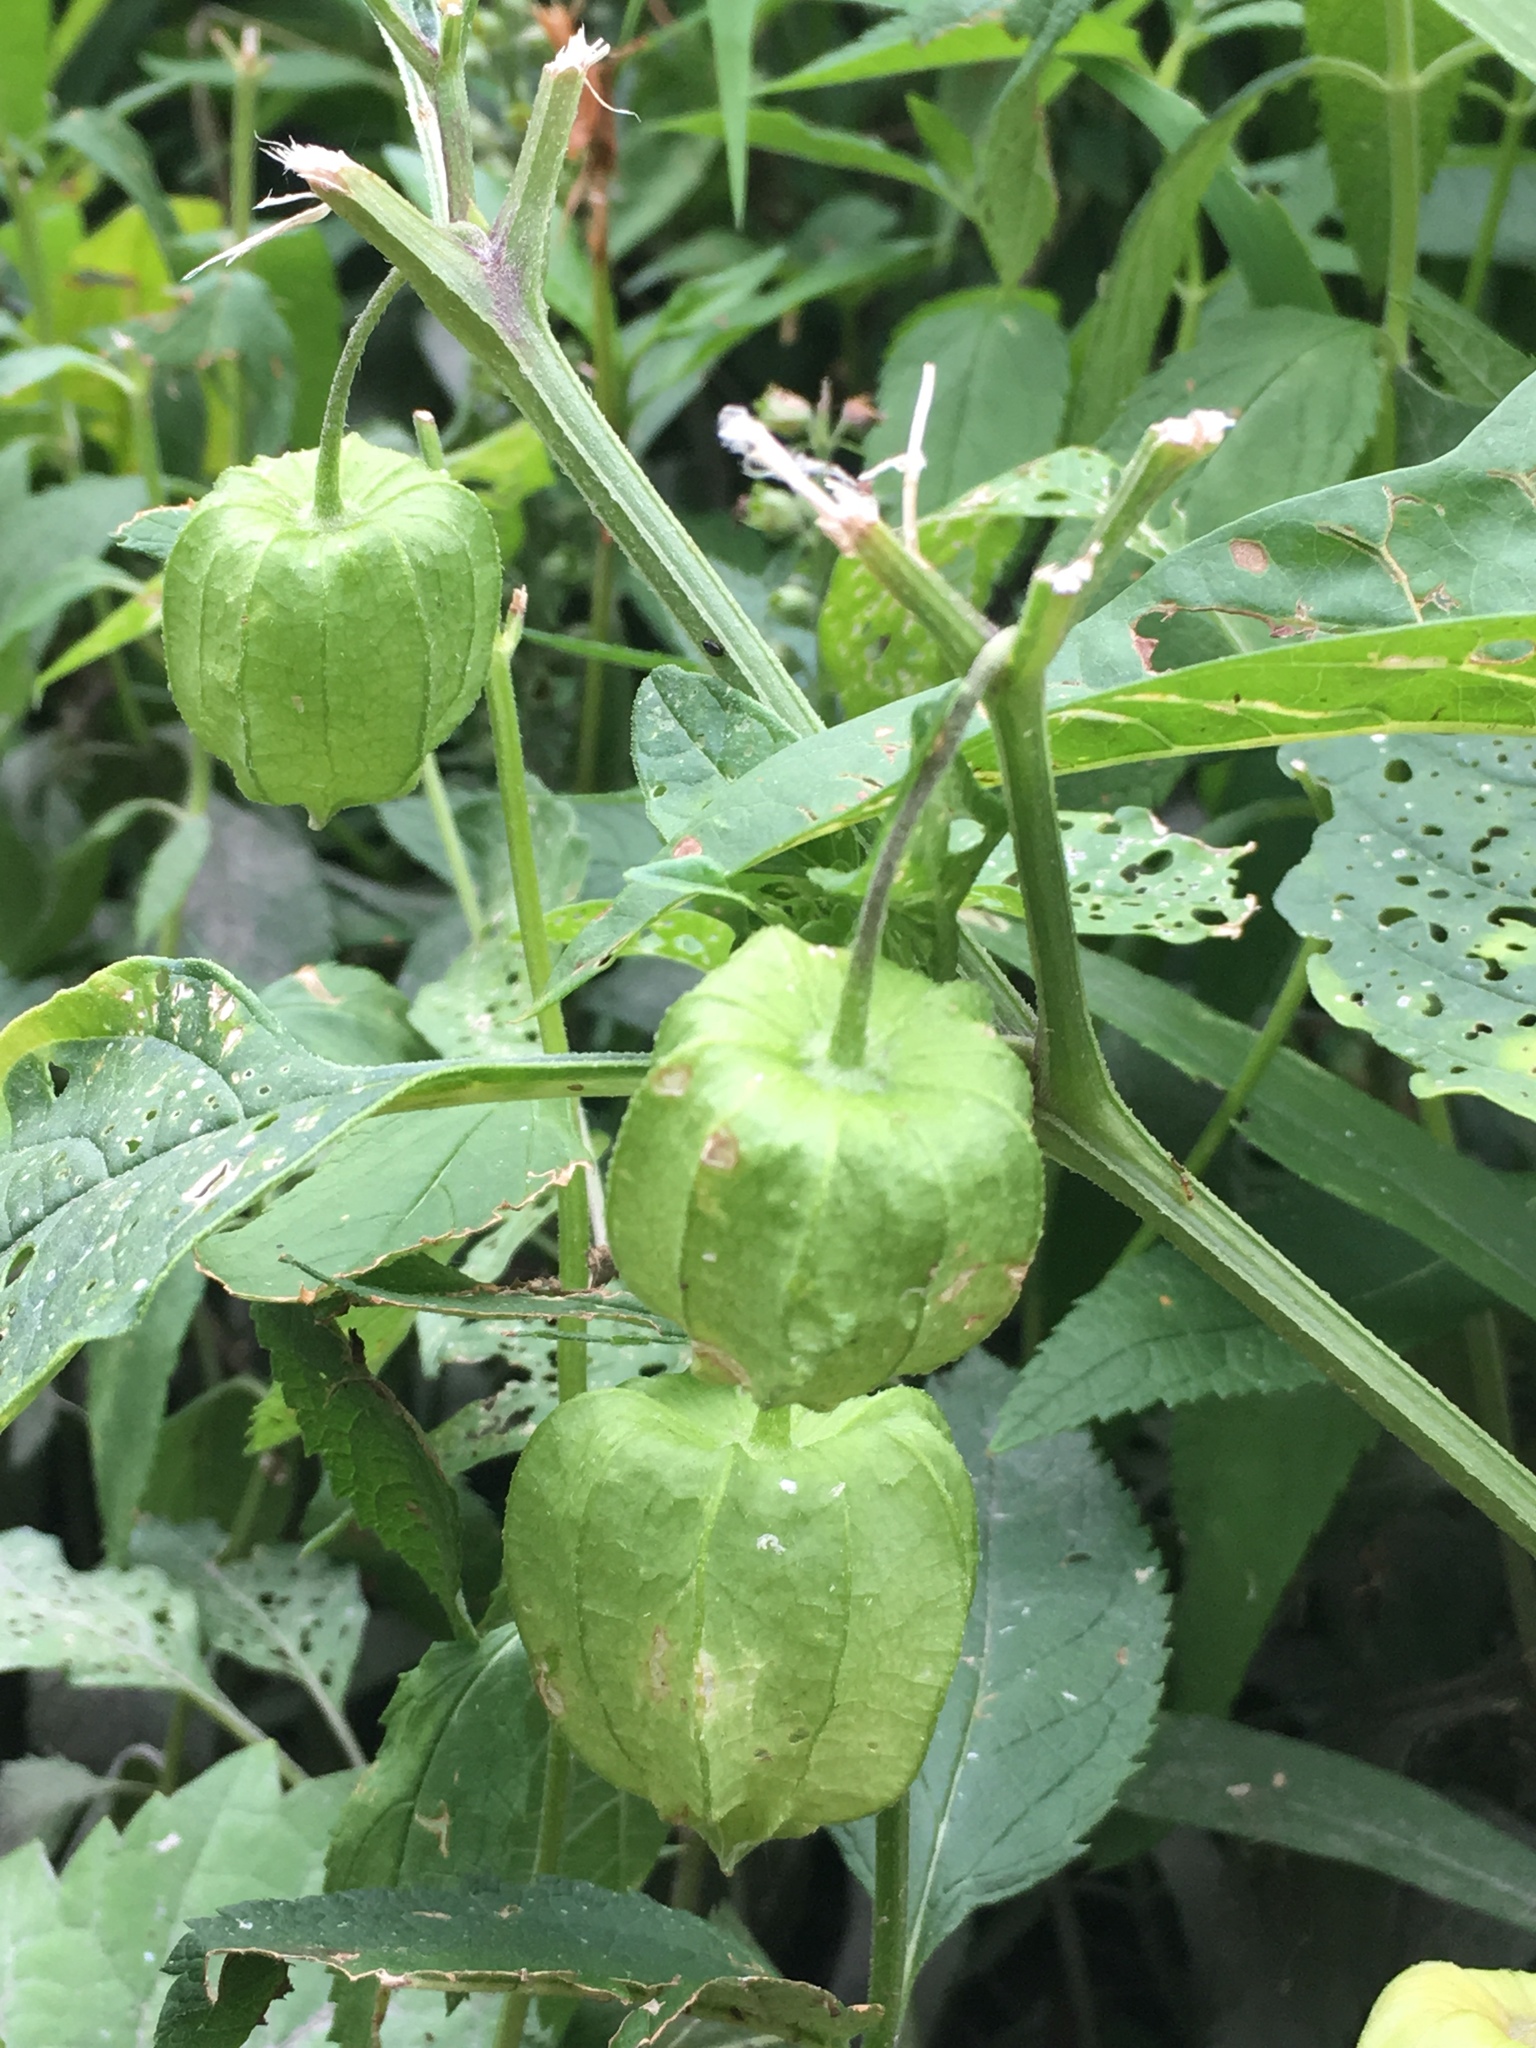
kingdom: Plantae
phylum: Tracheophyta
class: Magnoliopsida
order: Solanales
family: Solanaceae
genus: Physalis
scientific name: Physalis longifolia
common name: Common ground-cherry
